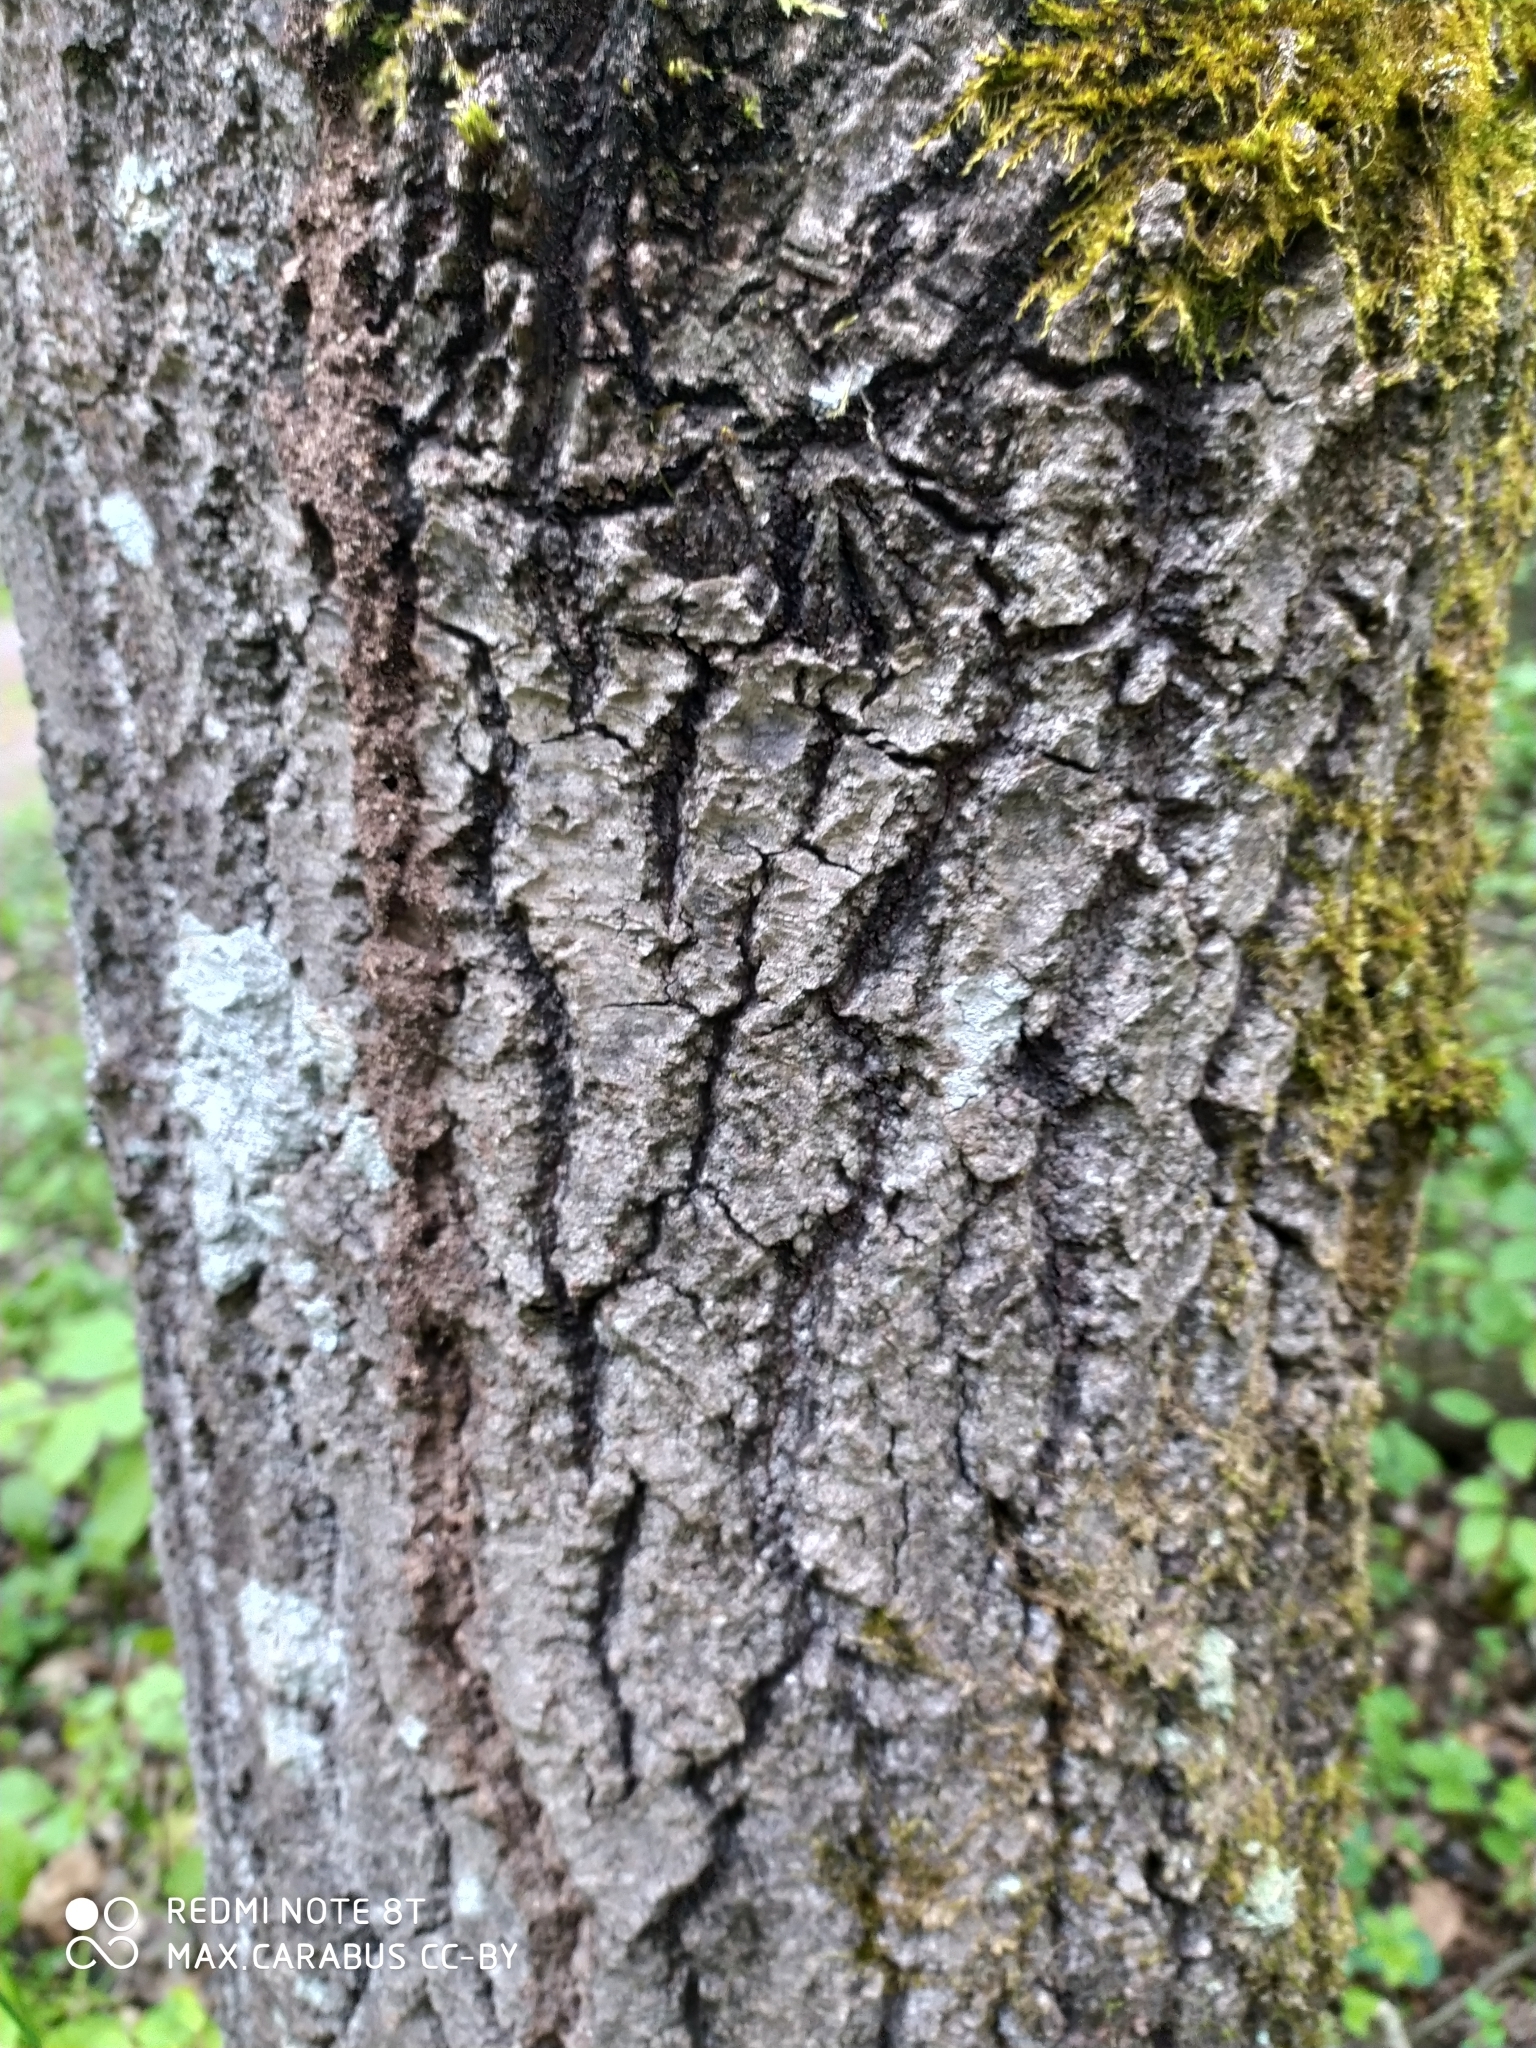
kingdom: Plantae
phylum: Tracheophyta
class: Magnoliopsida
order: Malpighiales
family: Salicaceae
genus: Populus
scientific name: Populus tremula
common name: European aspen
